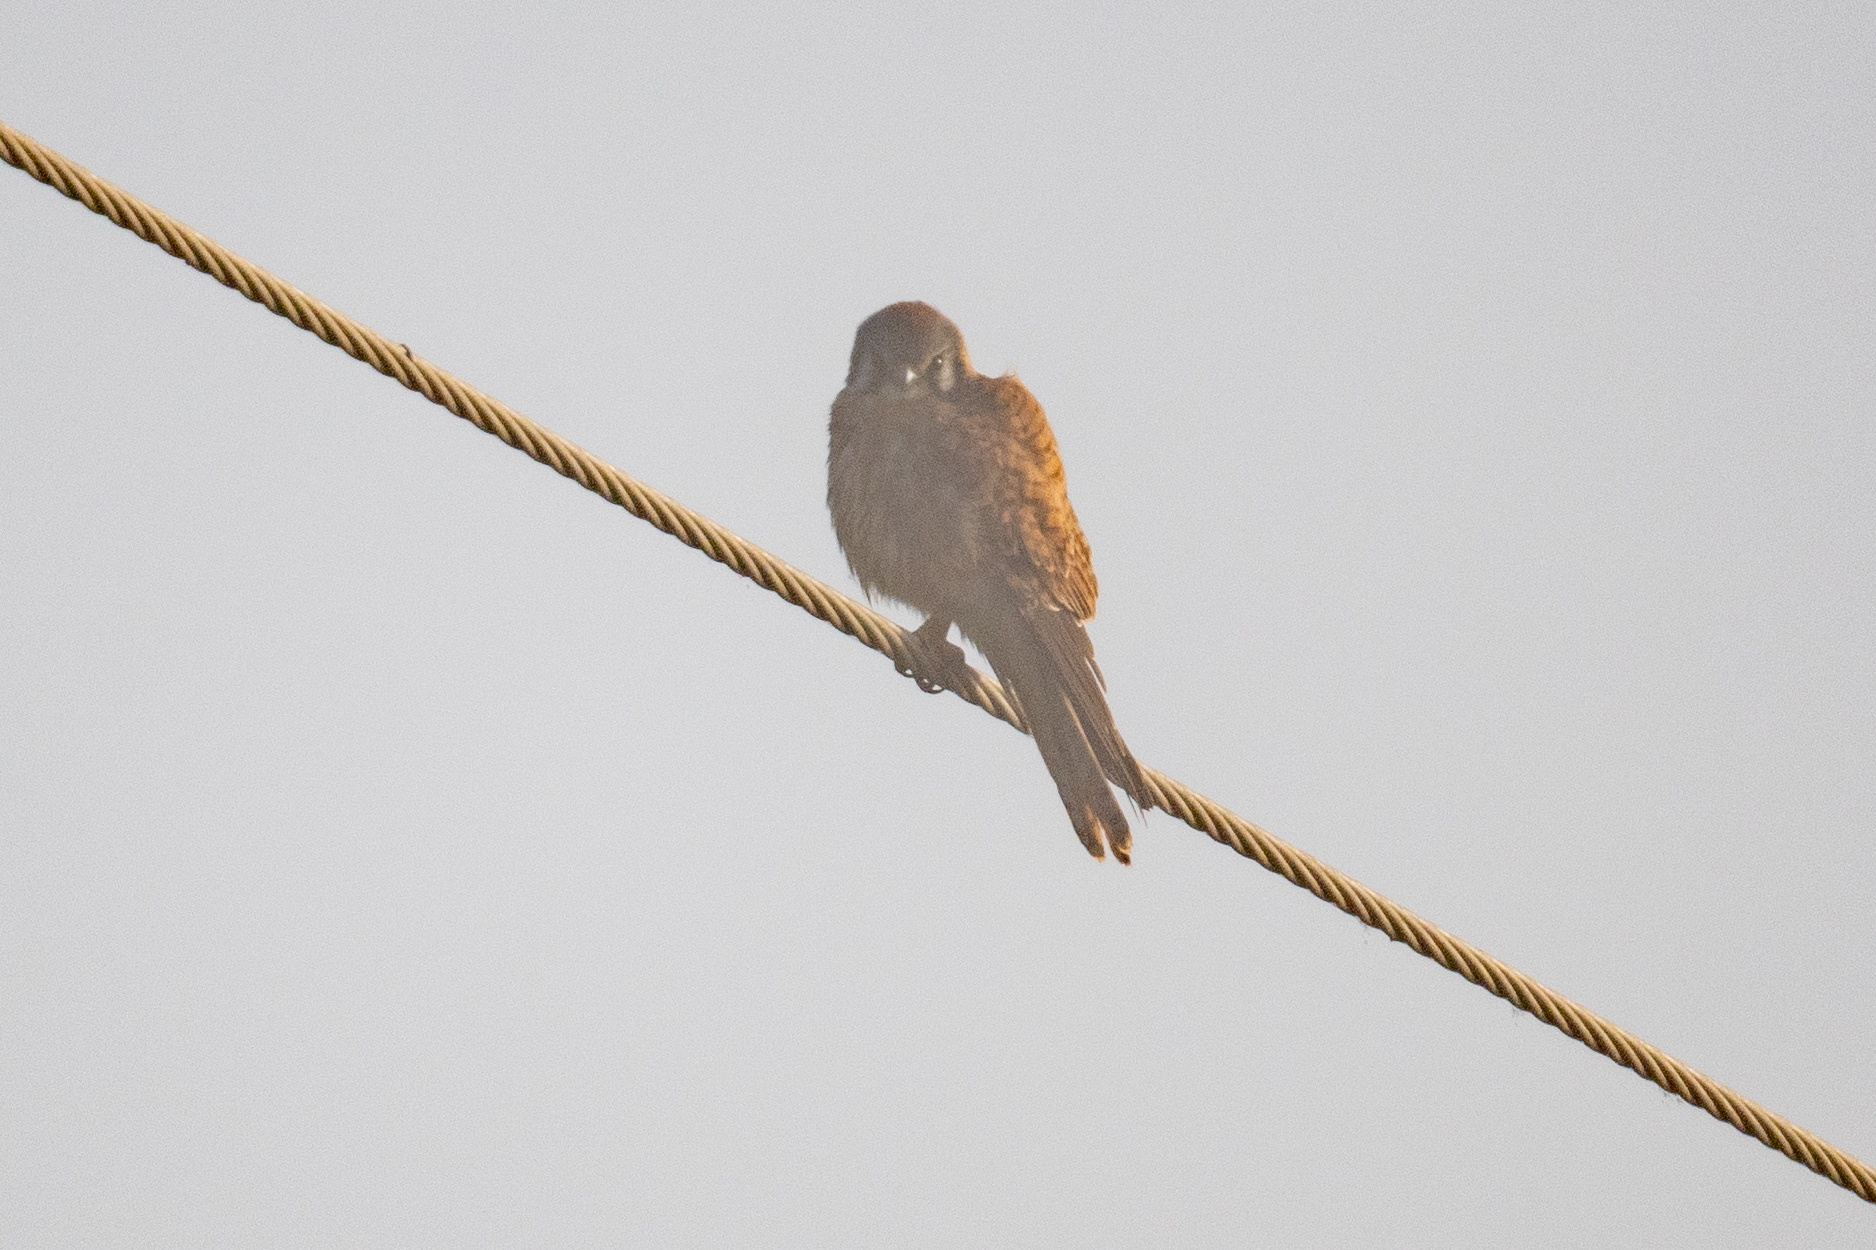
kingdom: Animalia
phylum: Chordata
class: Aves
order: Falconiformes
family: Falconidae
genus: Falco
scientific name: Falco sparverius
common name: American kestrel
